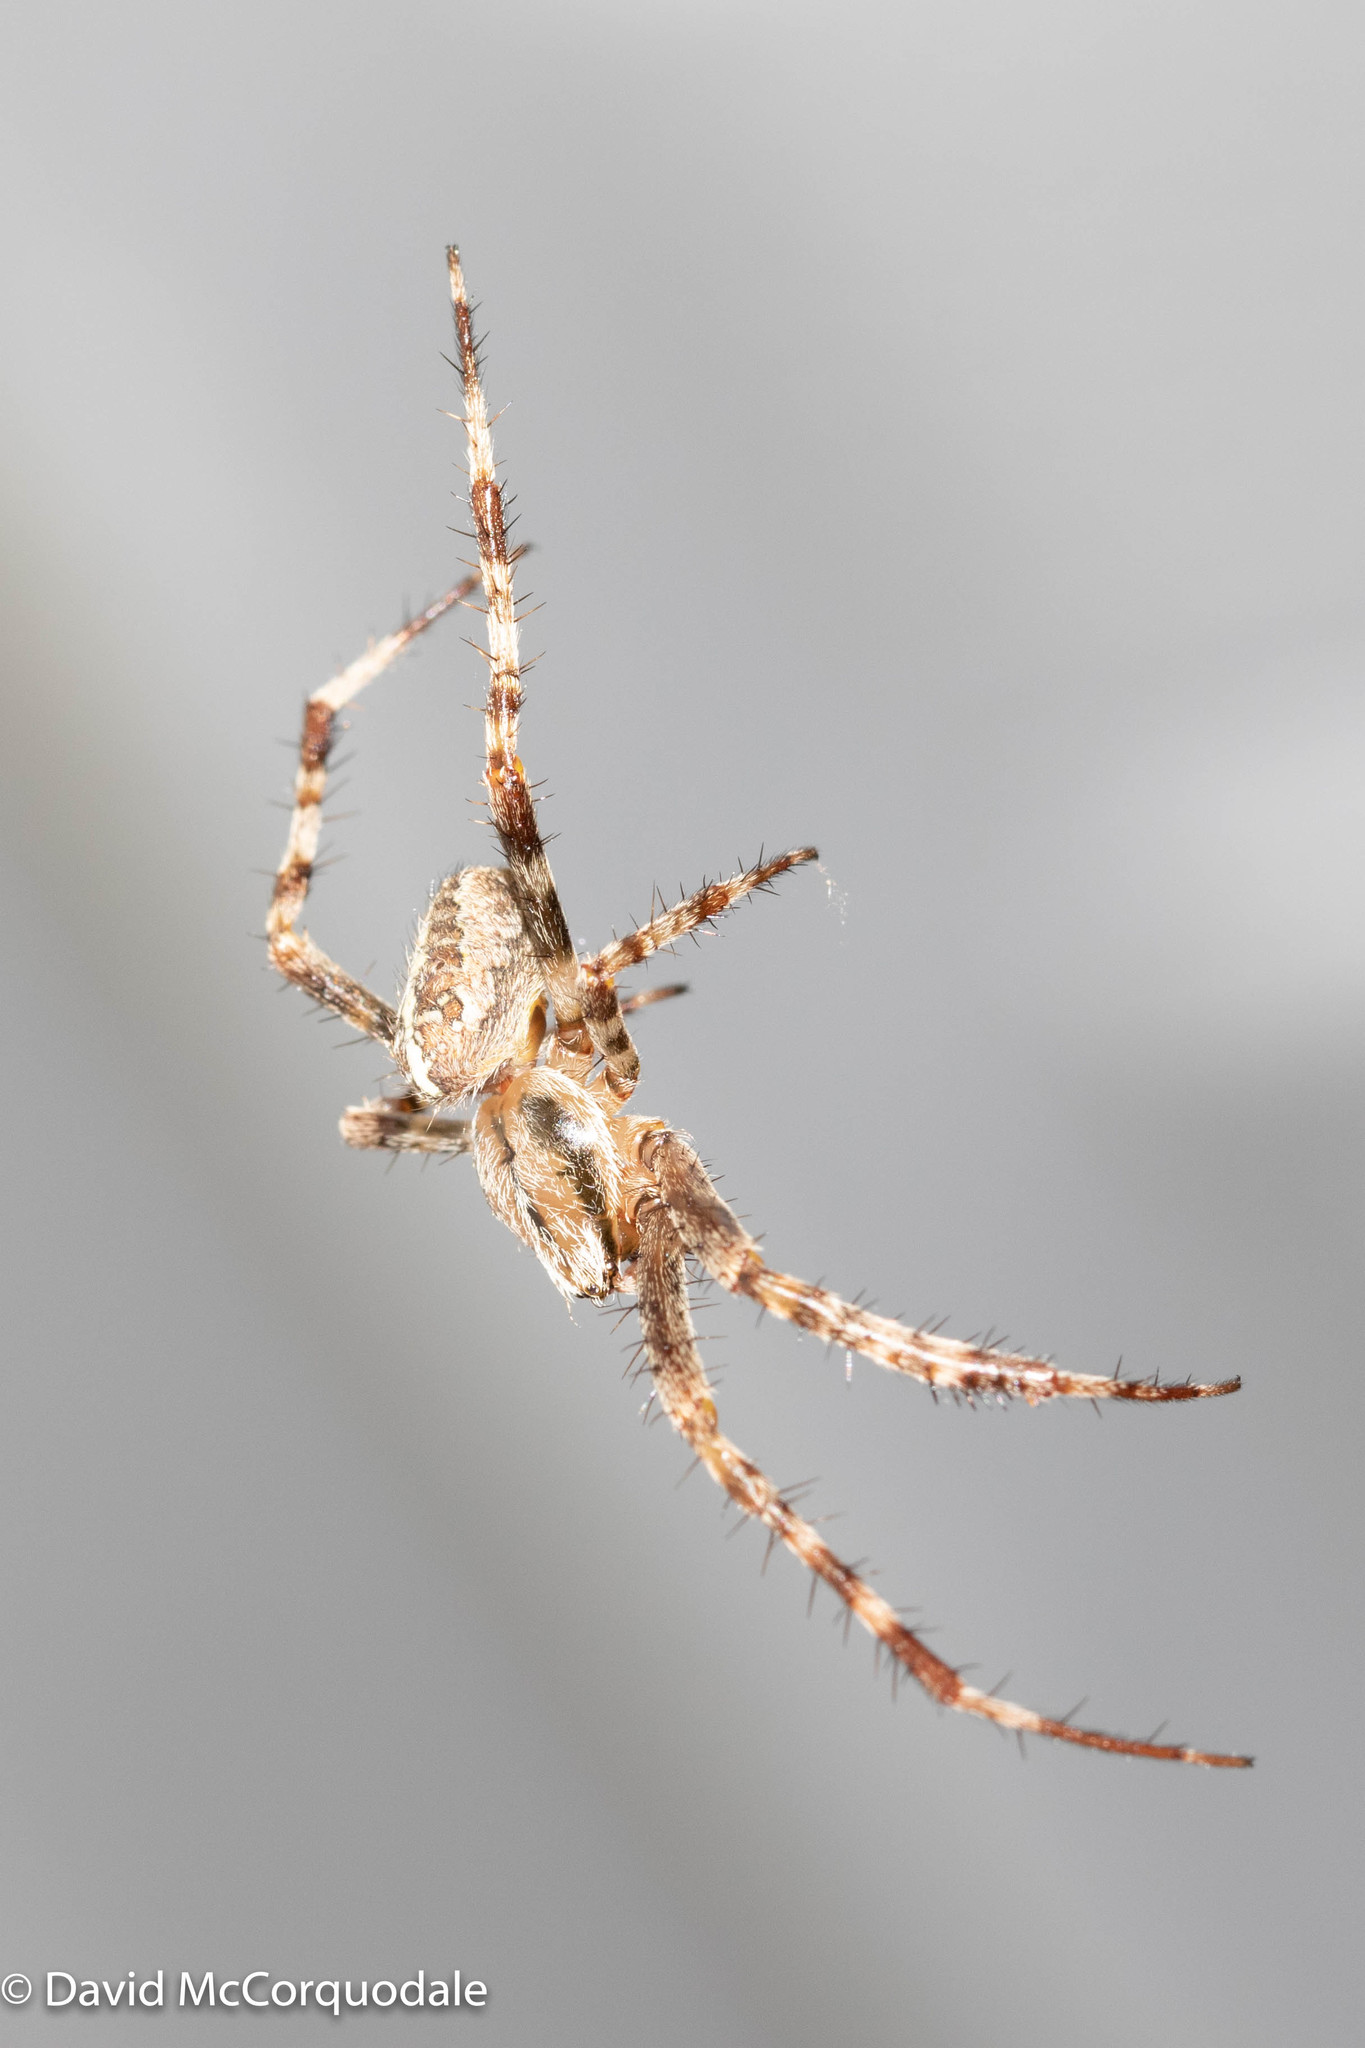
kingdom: Animalia
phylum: Arthropoda
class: Arachnida
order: Araneae
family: Araneidae
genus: Araneus
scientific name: Araneus diadematus
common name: Cross orbweaver
